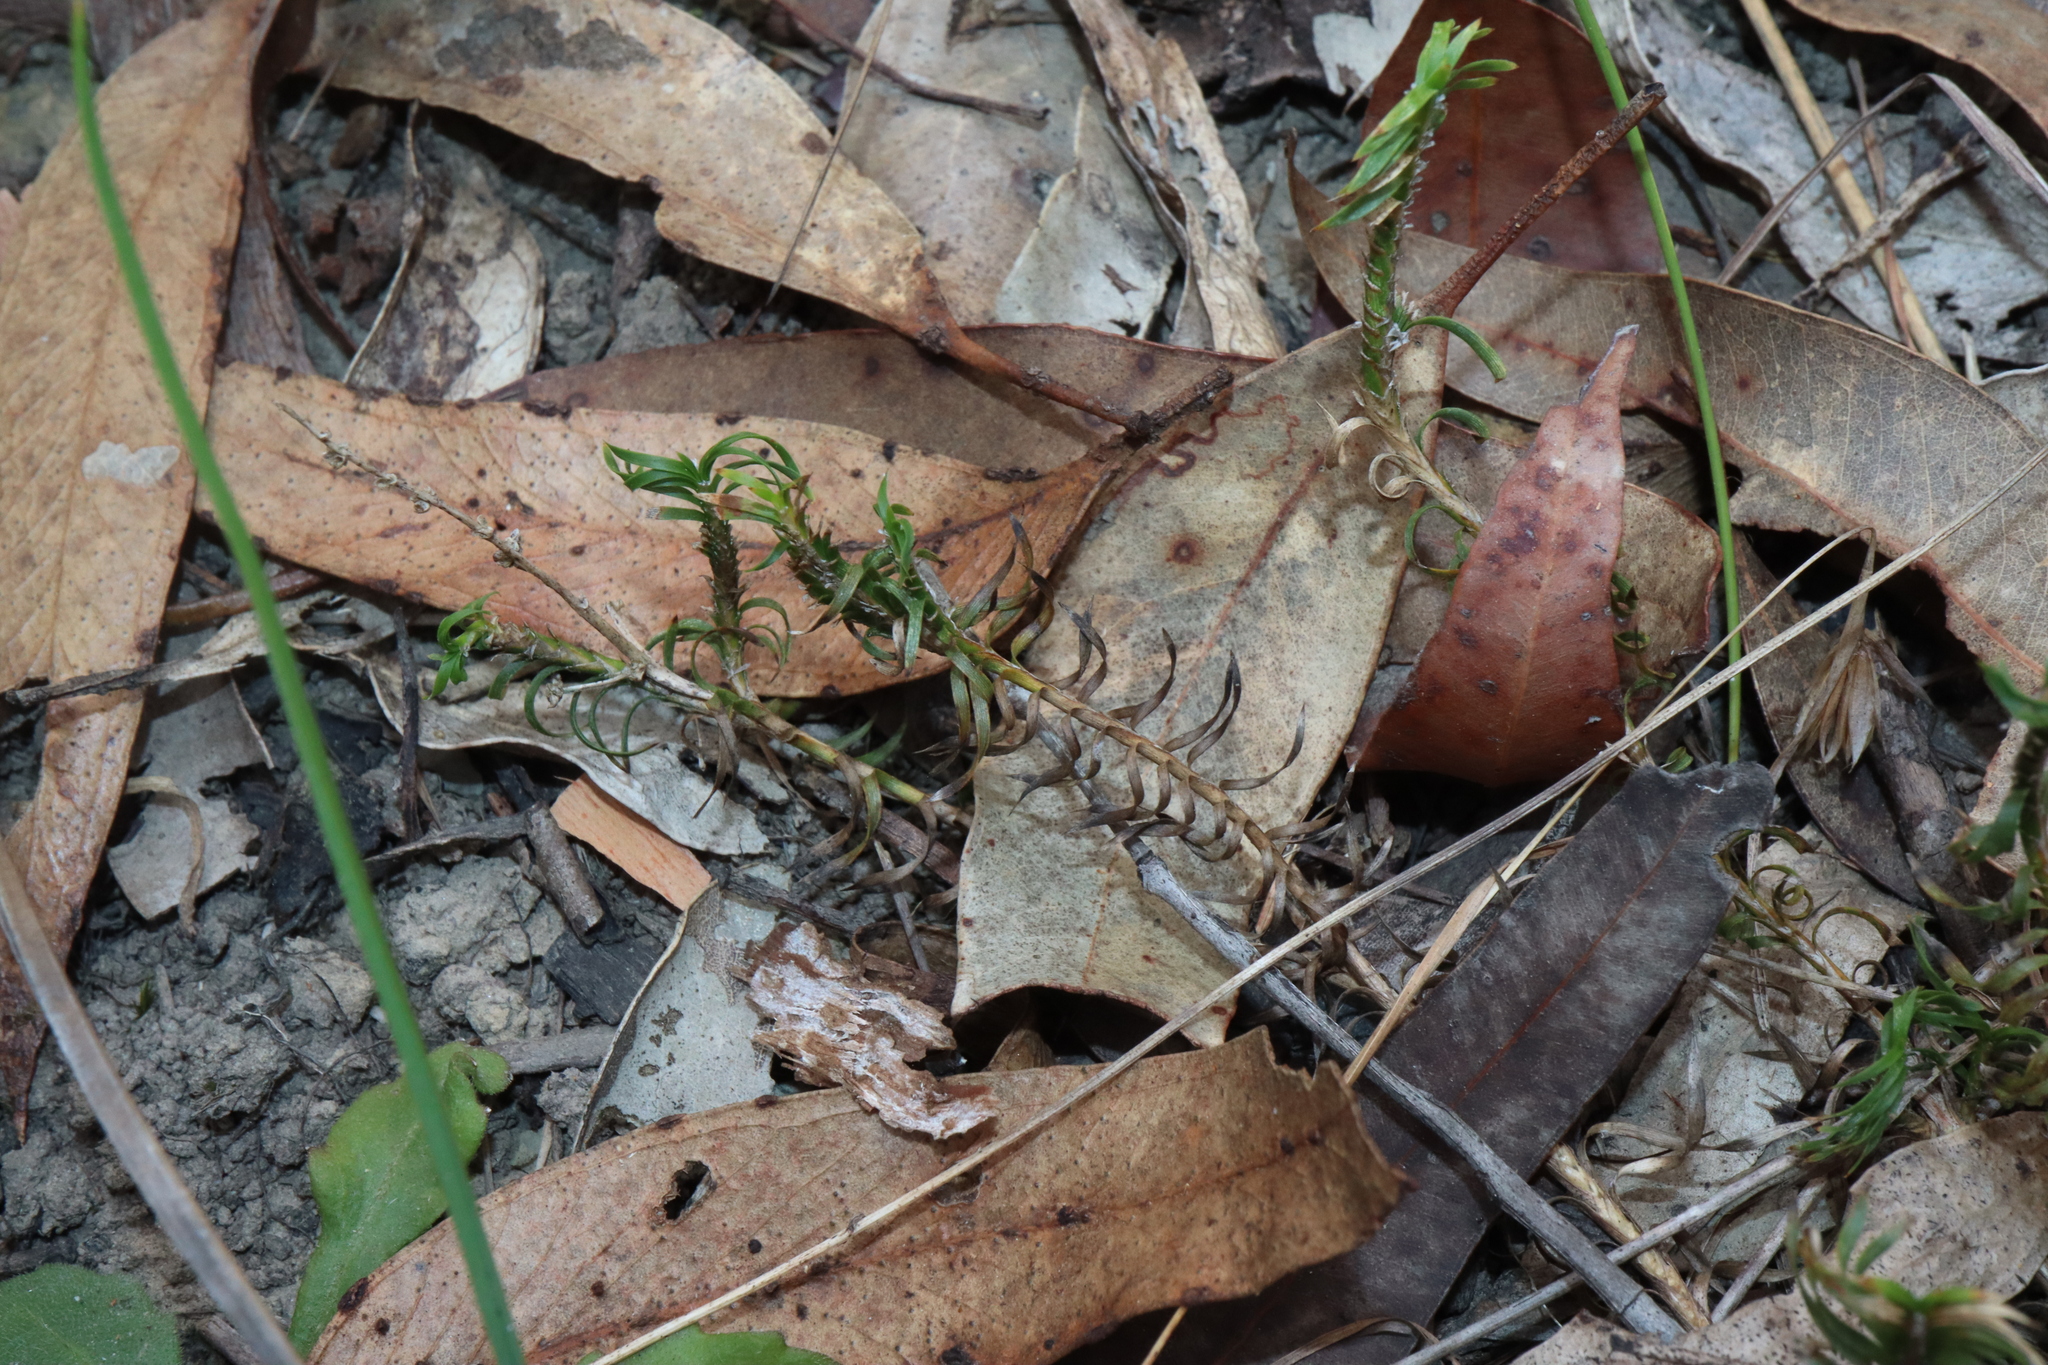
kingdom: Plantae
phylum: Tracheophyta
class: Liliopsida
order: Asparagales
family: Asparagaceae
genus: Lomandra
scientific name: Lomandra obliqua
